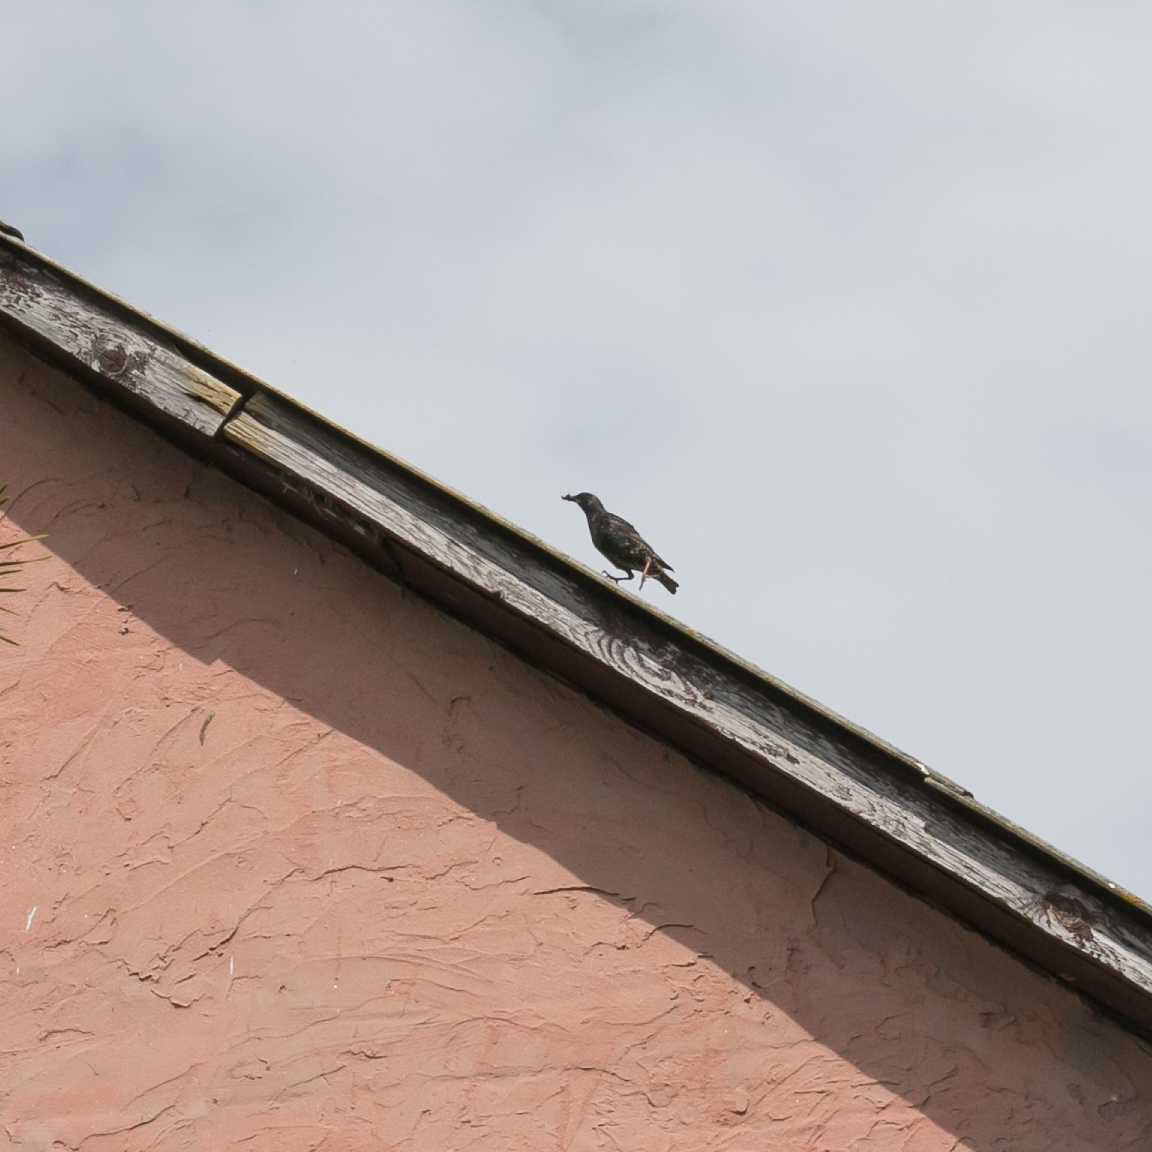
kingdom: Animalia
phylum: Chordata
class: Aves
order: Passeriformes
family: Sturnidae
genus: Sturnus
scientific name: Sturnus vulgaris
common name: Common starling
